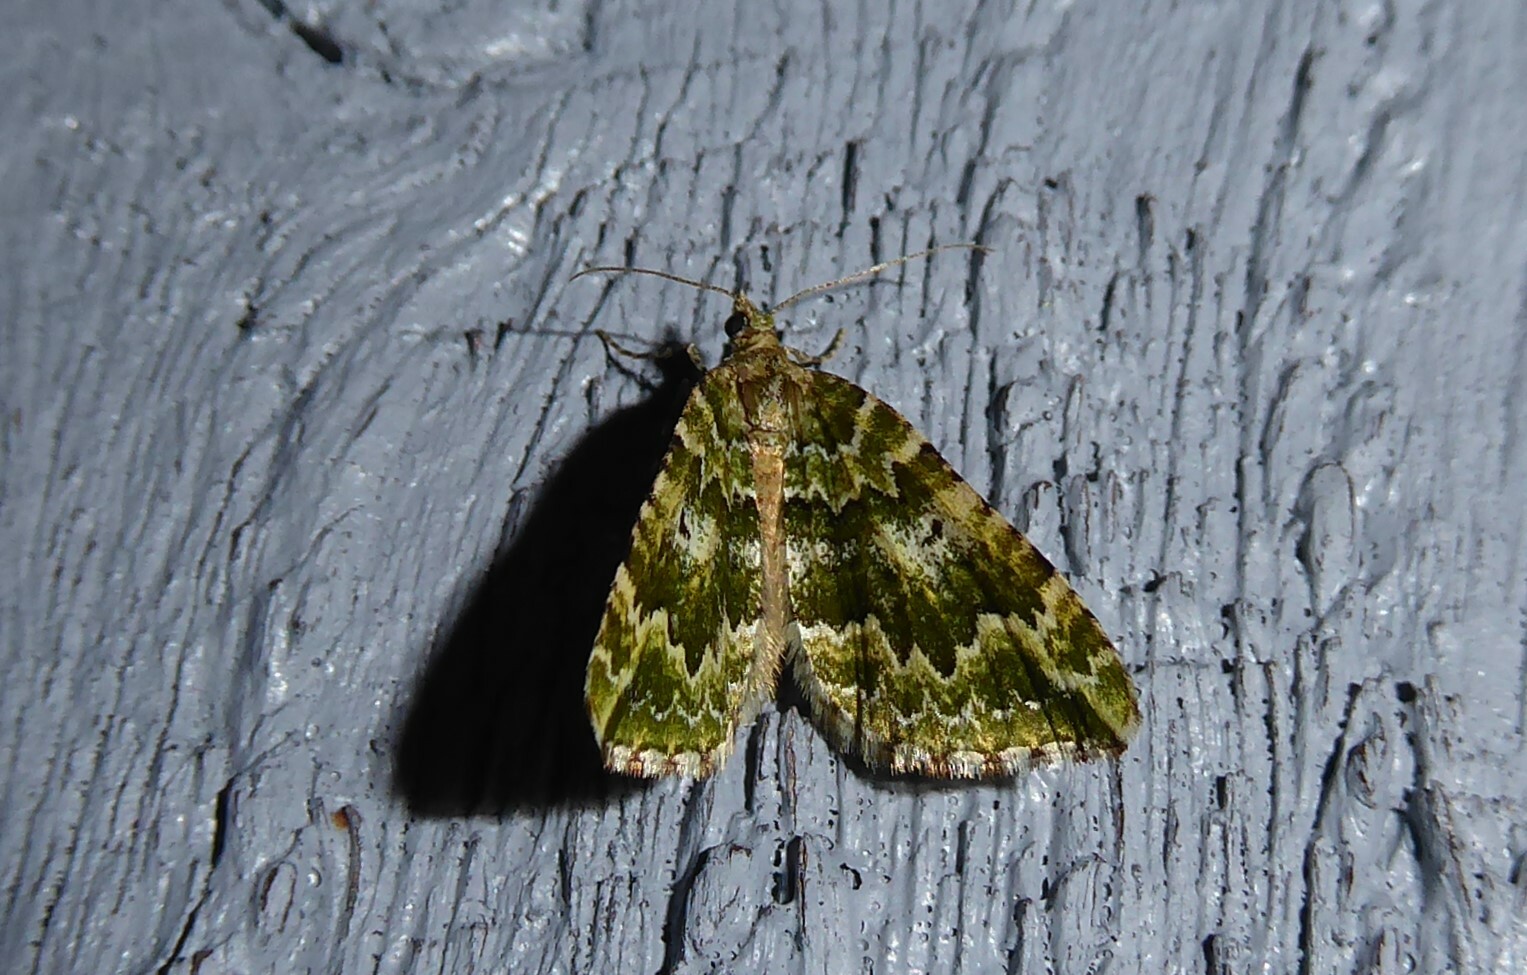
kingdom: Animalia
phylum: Arthropoda
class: Insecta
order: Lepidoptera
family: Geometridae
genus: Asaphodes
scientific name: Asaphodes beata
